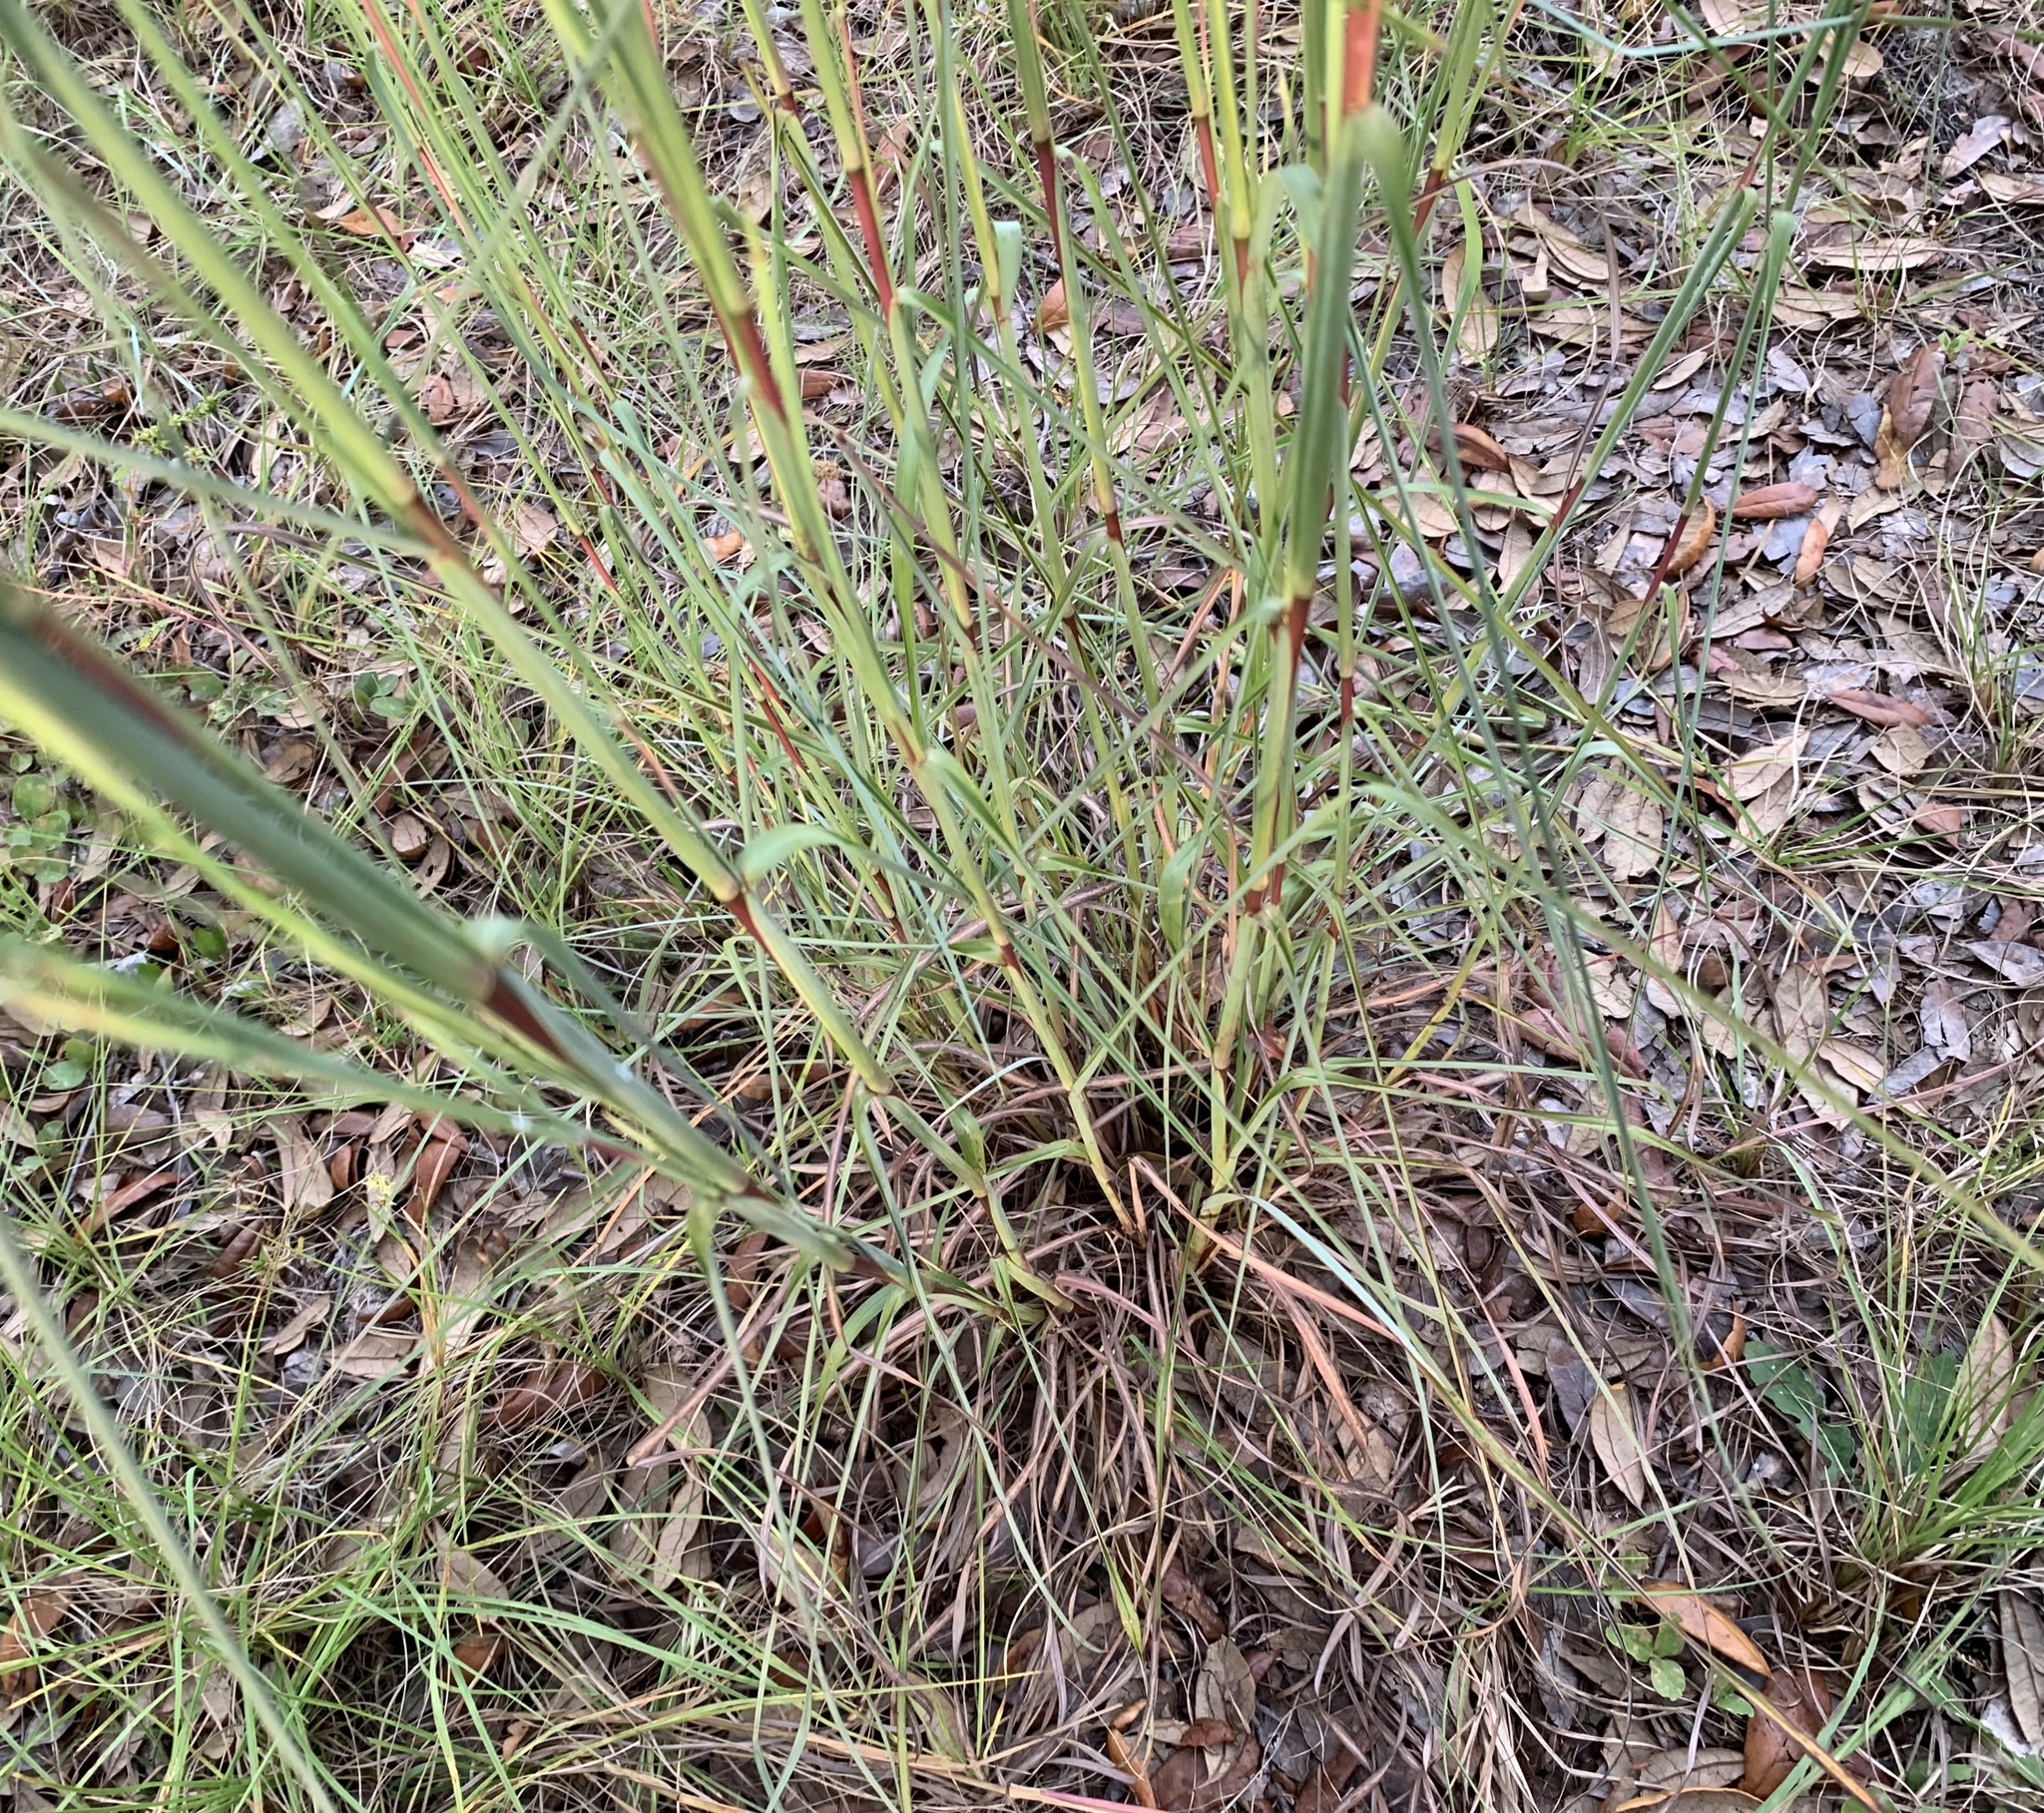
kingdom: Plantae
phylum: Tracheophyta
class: Liliopsida
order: Poales
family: Poaceae
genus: Andropogon
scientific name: Andropogon ternarius
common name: Split bluestem
